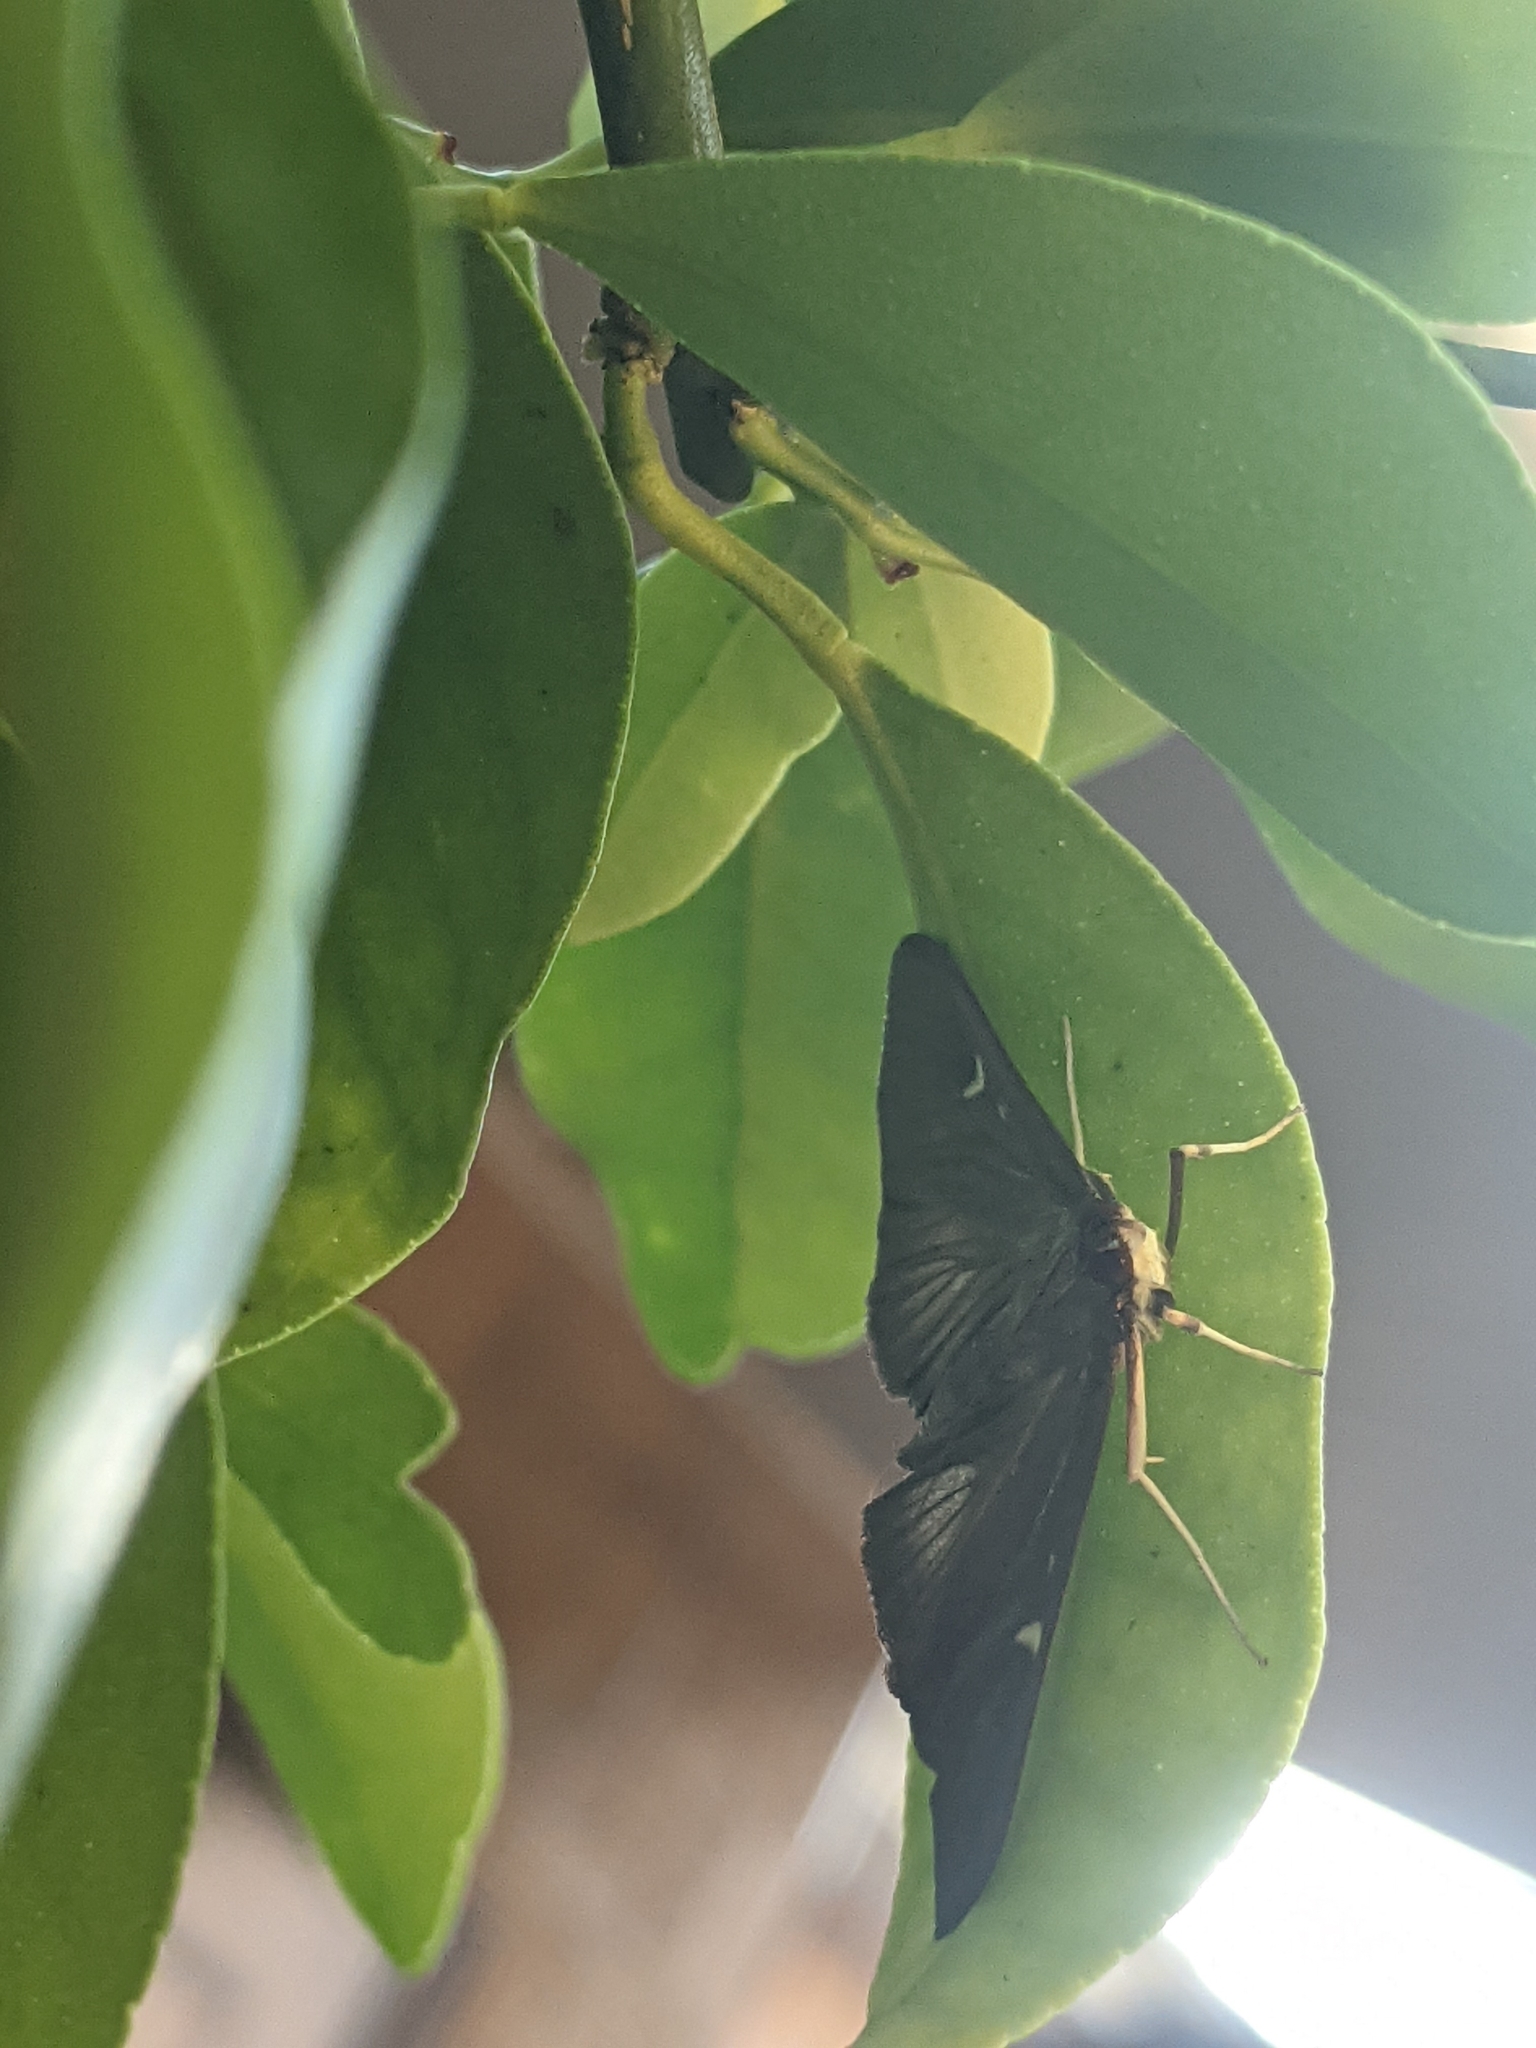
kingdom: Animalia
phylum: Arthropoda
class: Insecta
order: Lepidoptera
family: Crambidae
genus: Cydalima
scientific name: Cydalima perspectalis
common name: Box tree moth
